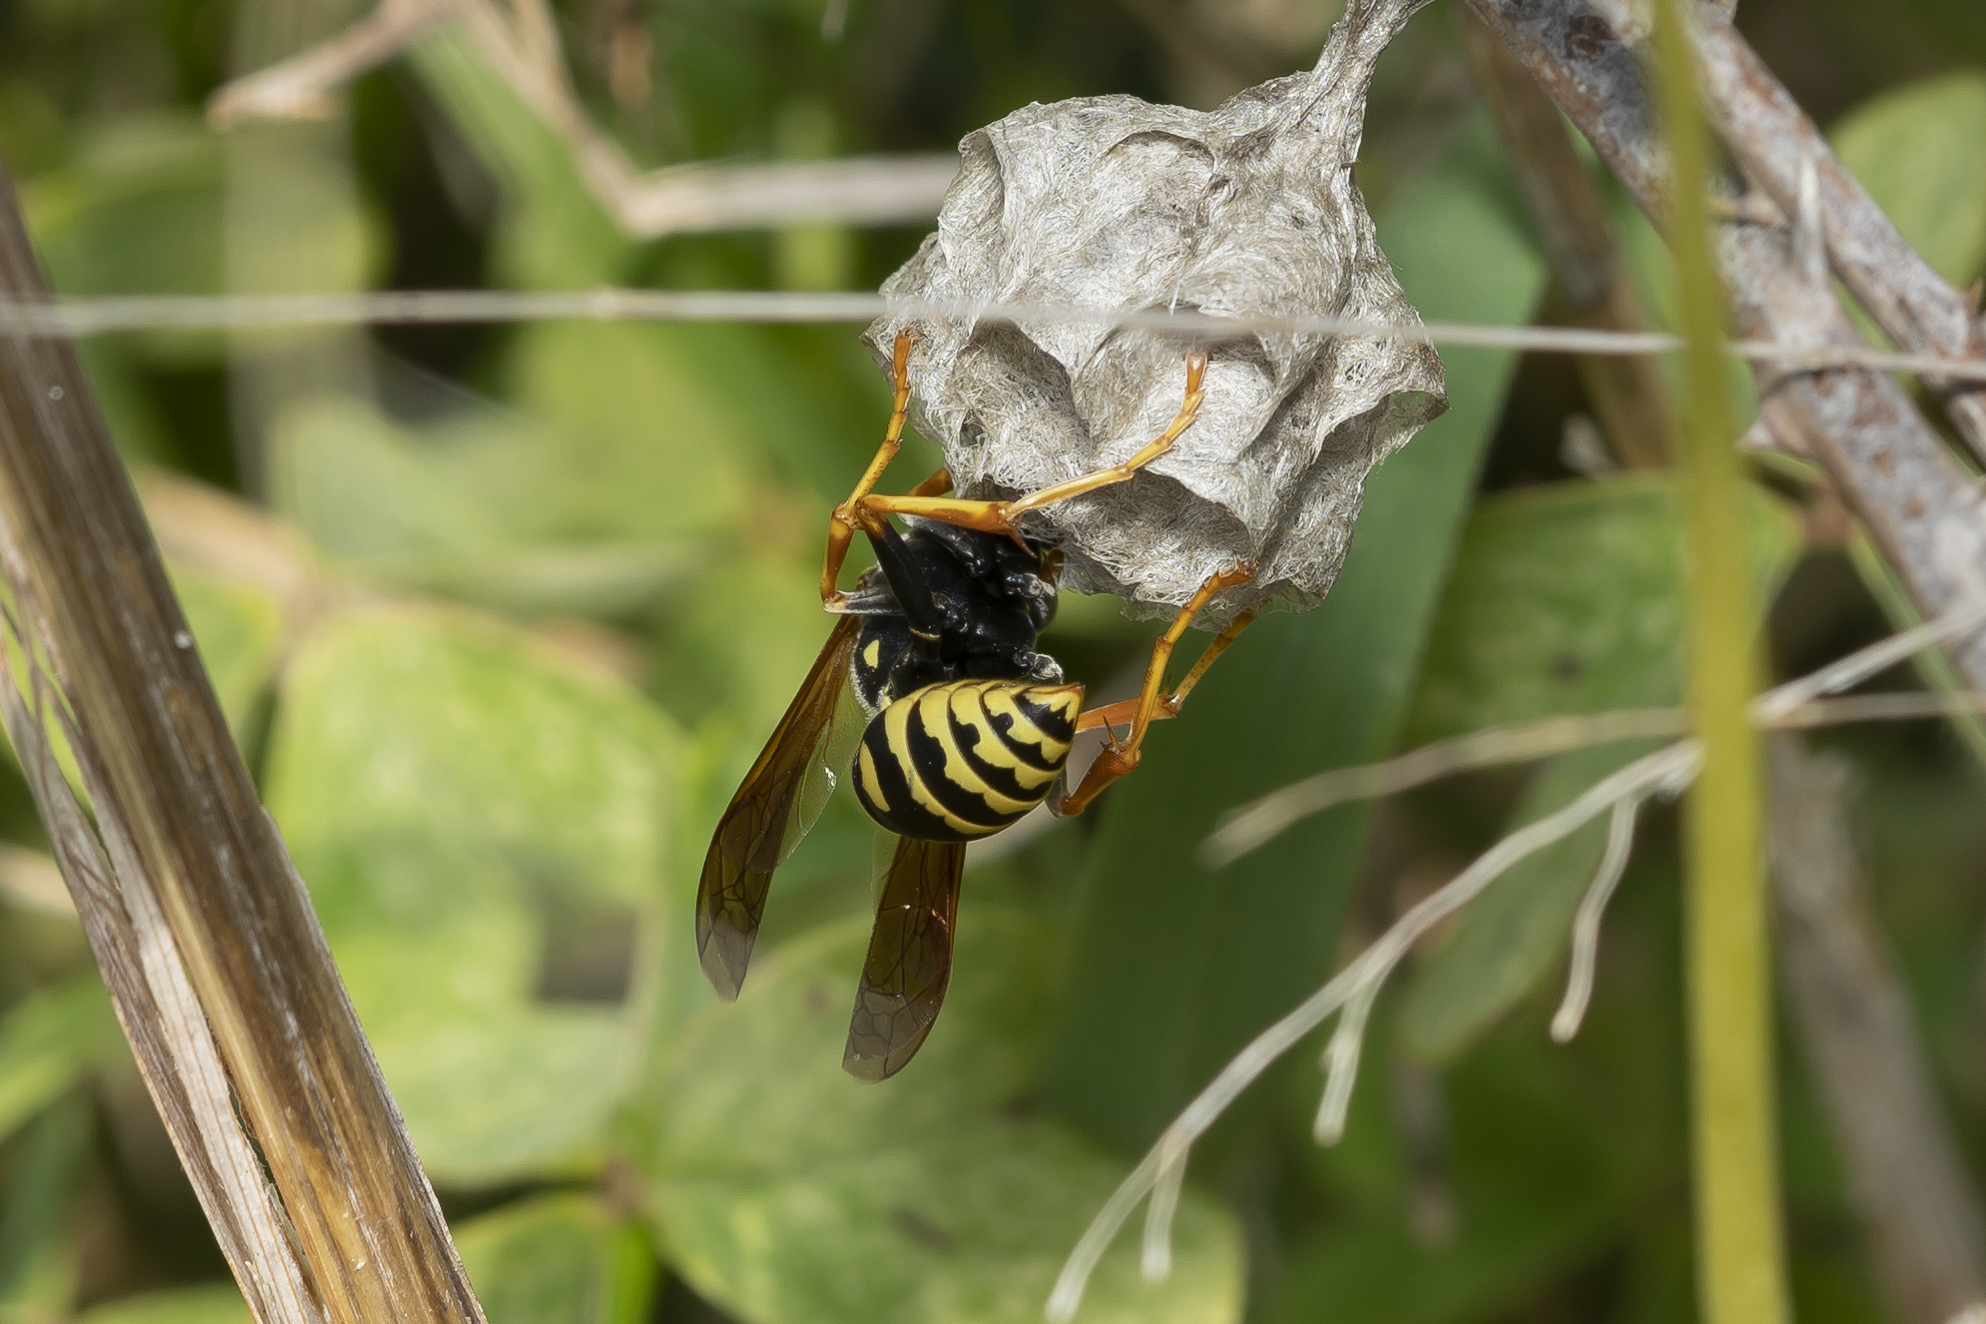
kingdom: Animalia
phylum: Arthropoda
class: Insecta
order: Hymenoptera
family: Eumenidae
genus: Polistes
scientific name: Polistes dominula
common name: Paper wasp
